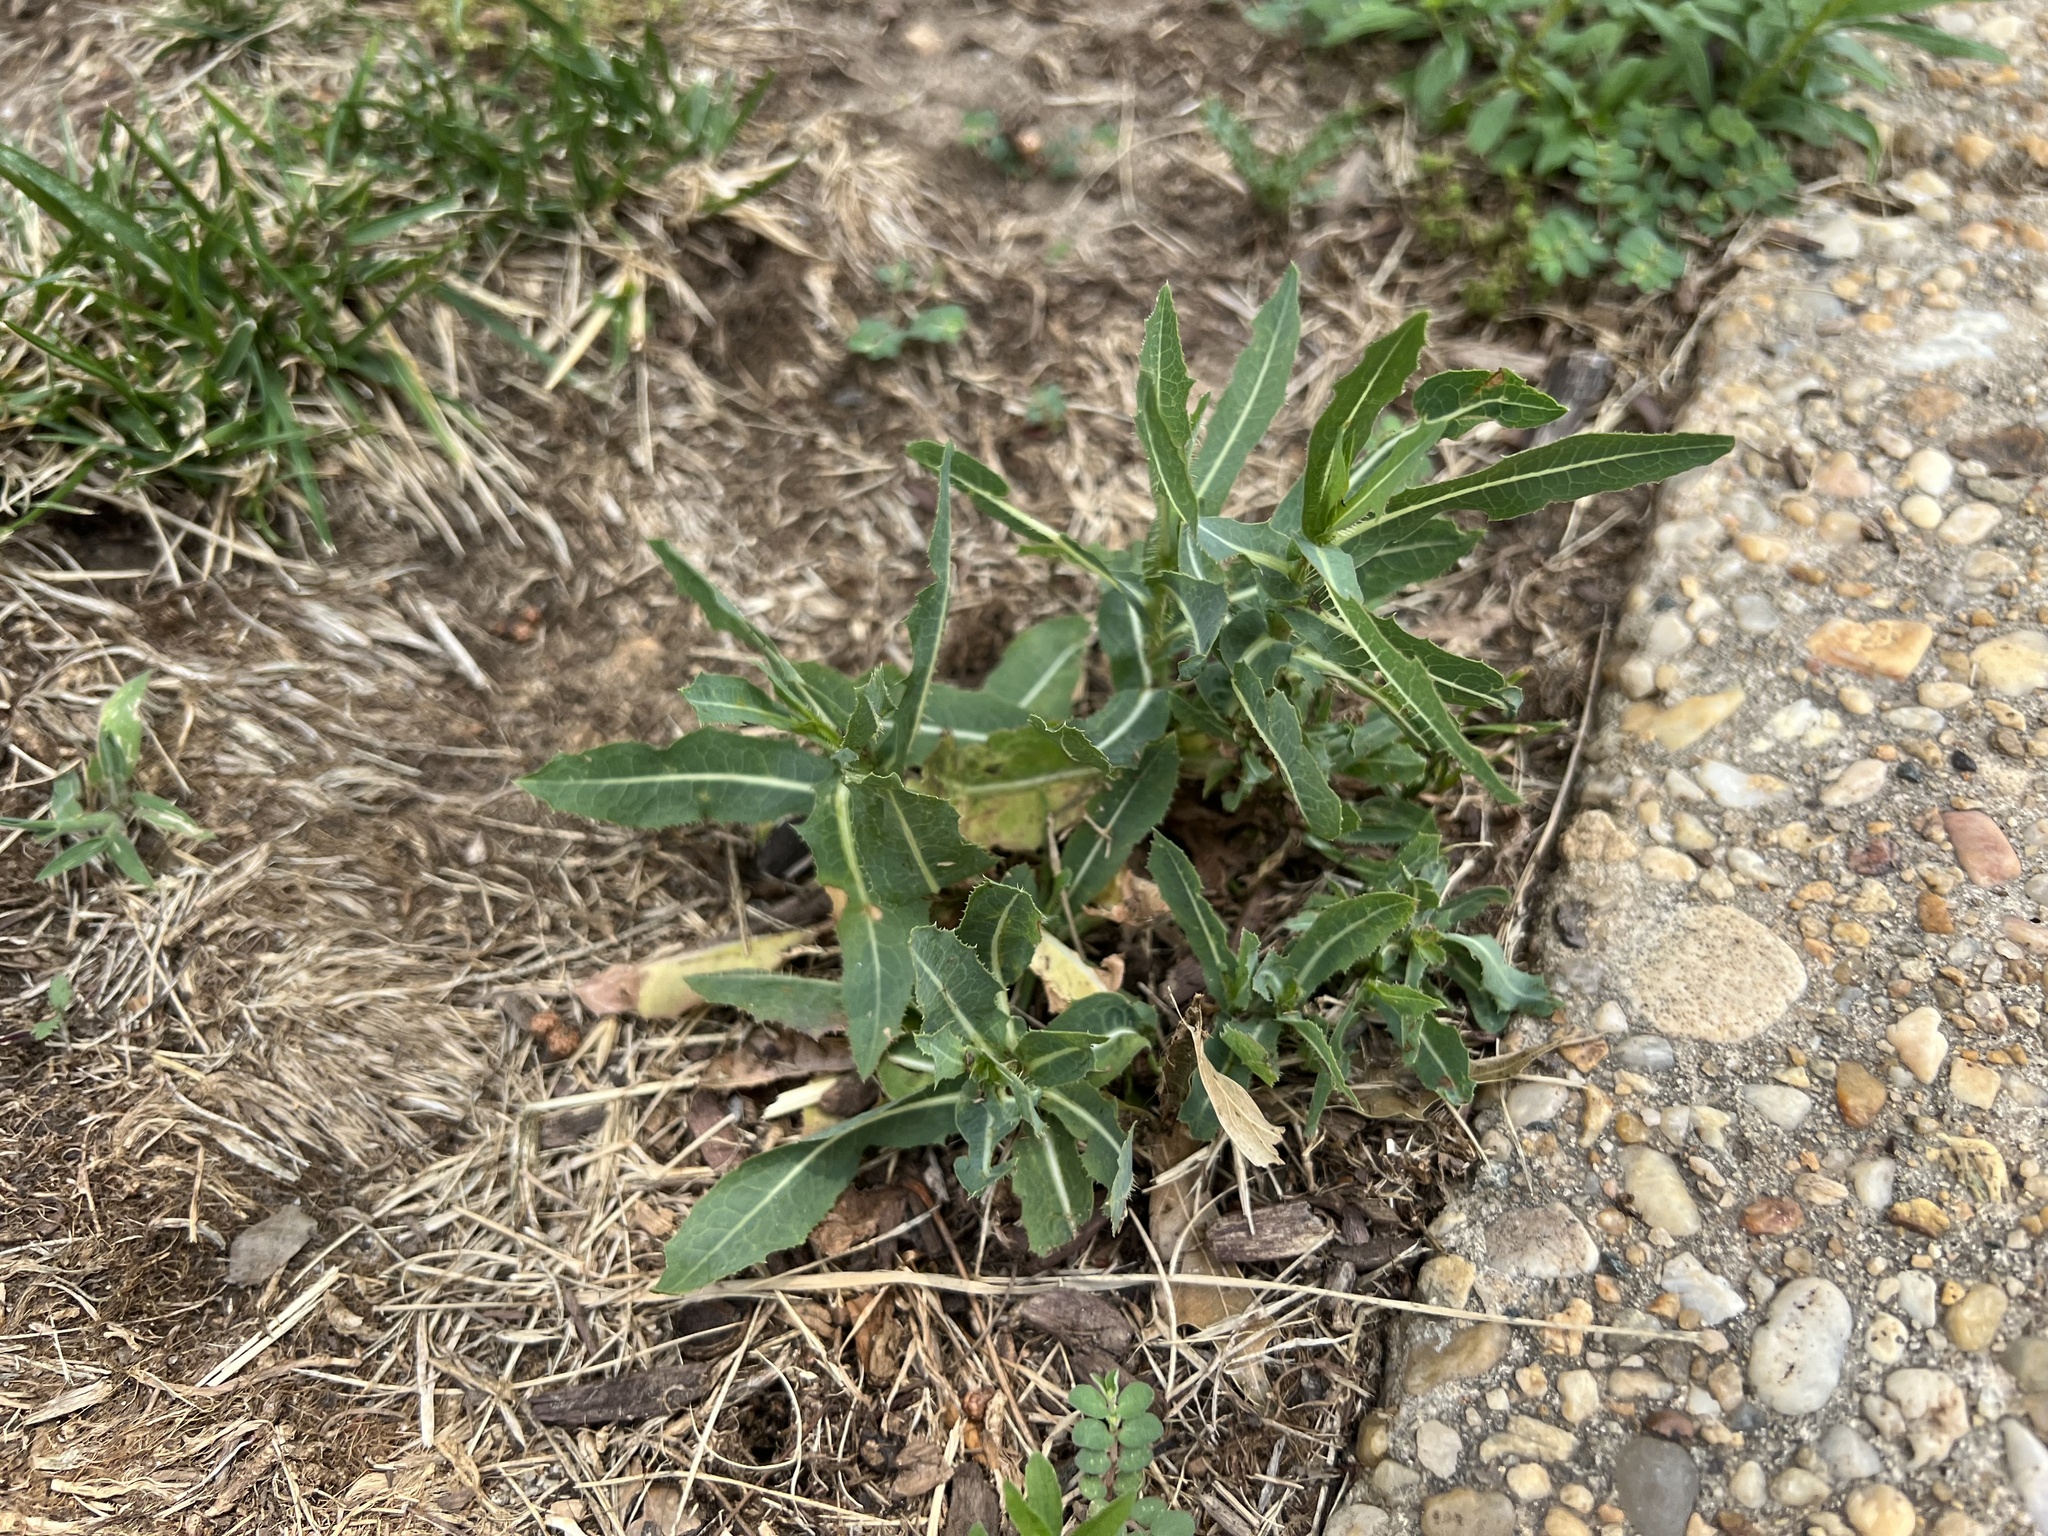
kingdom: Plantae
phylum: Tracheophyta
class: Magnoliopsida
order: Asterales
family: Asteraceae
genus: Lactuca
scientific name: Lactuca serriola
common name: Prickly lettuce
